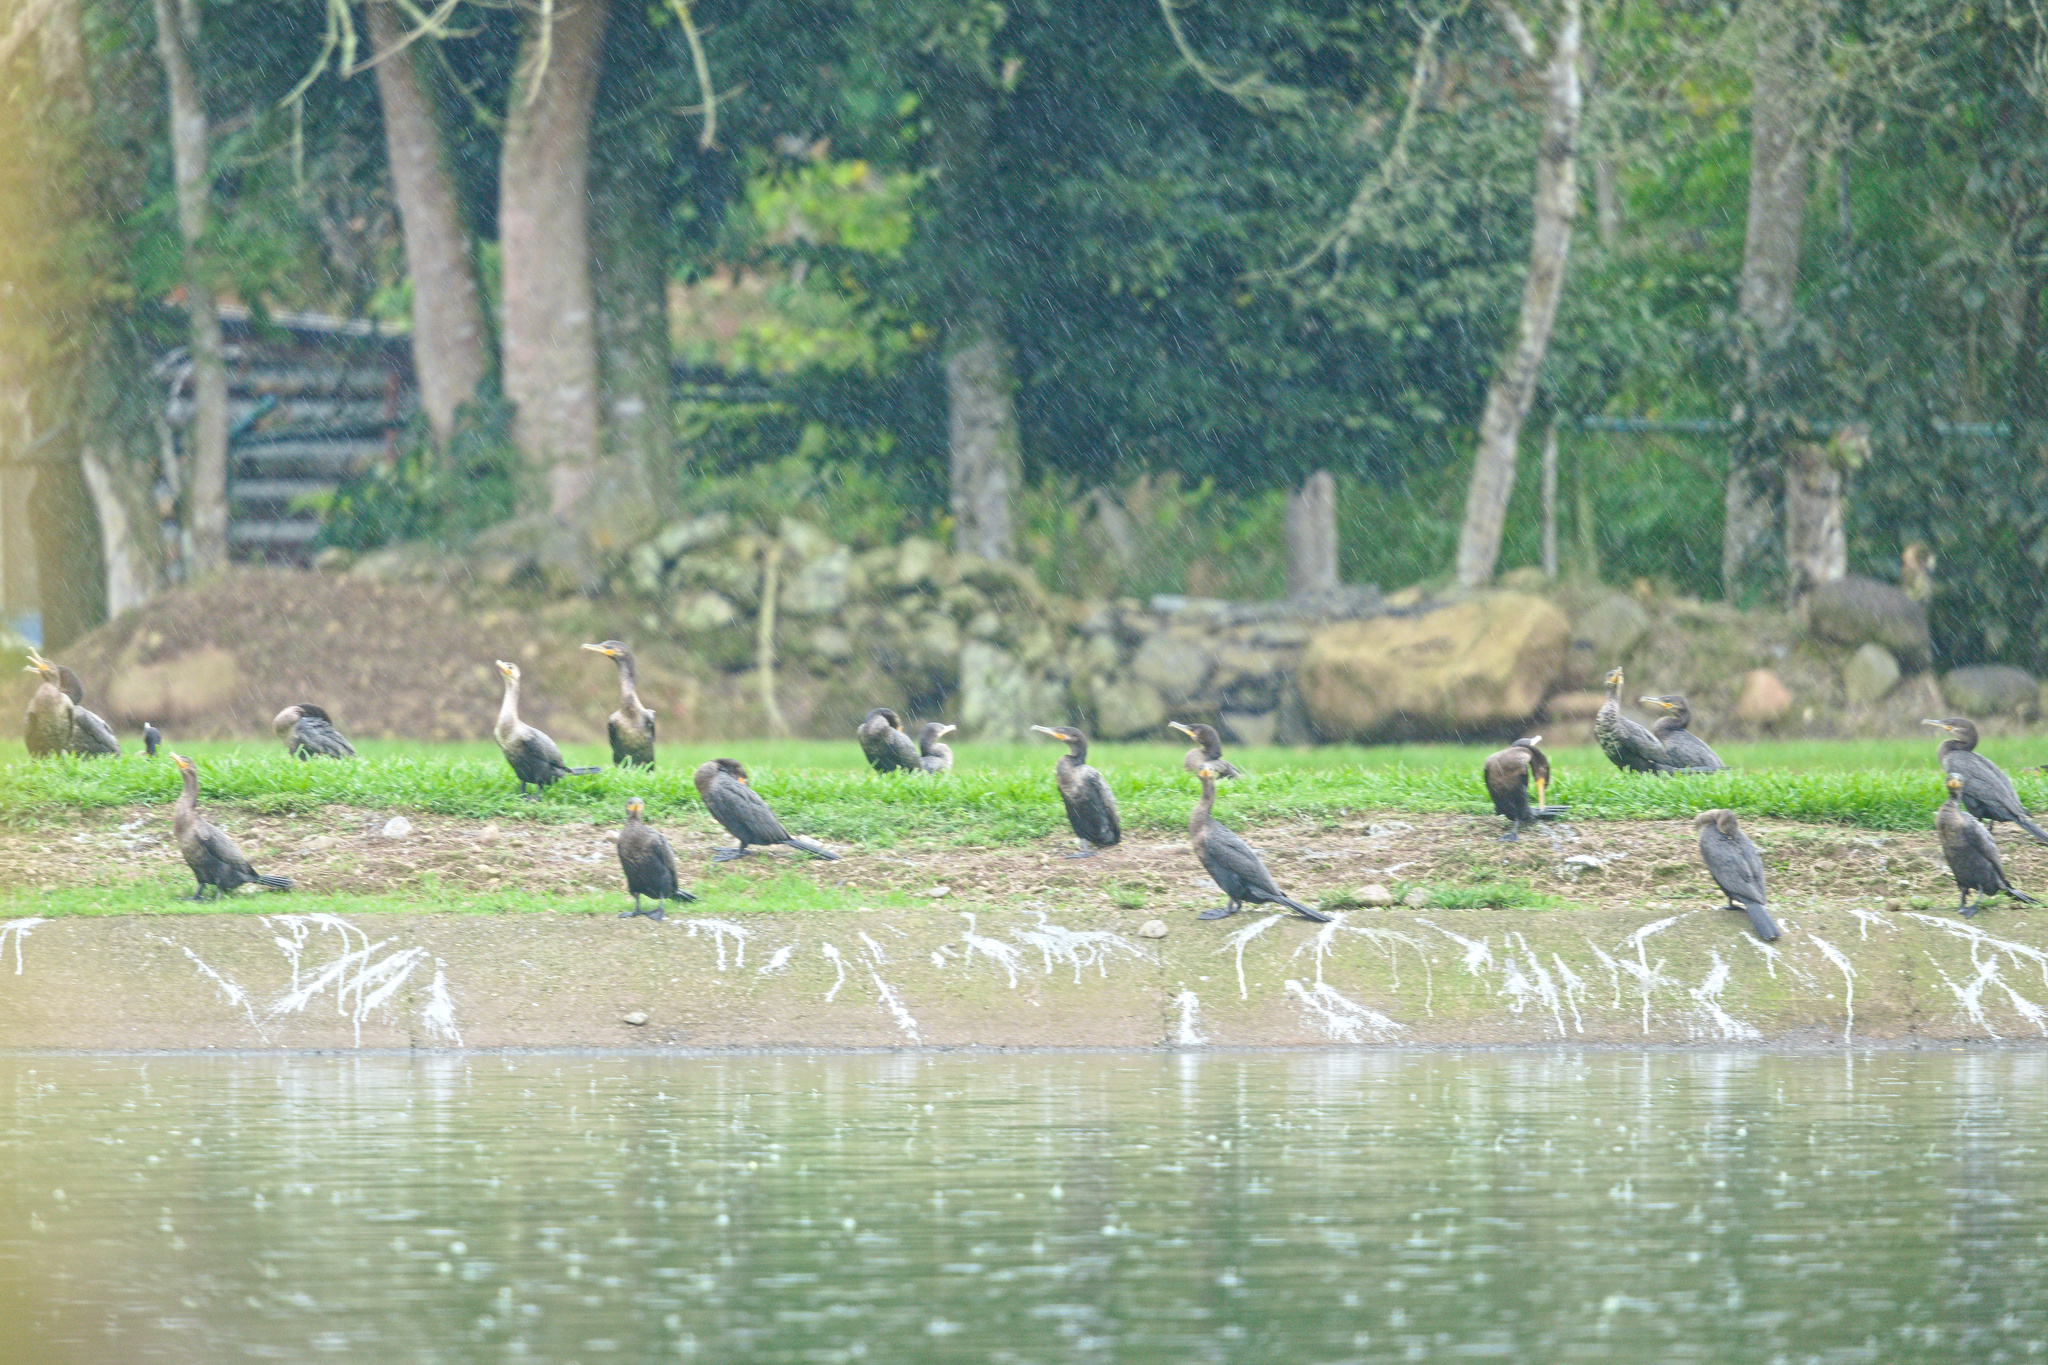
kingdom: Animalia
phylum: Chordata
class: Aves
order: Suliformes
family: Phalacrocoracidae
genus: Phalacrocorax
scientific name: Phalacrocorax brasilianus
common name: Neotropic cormorant
